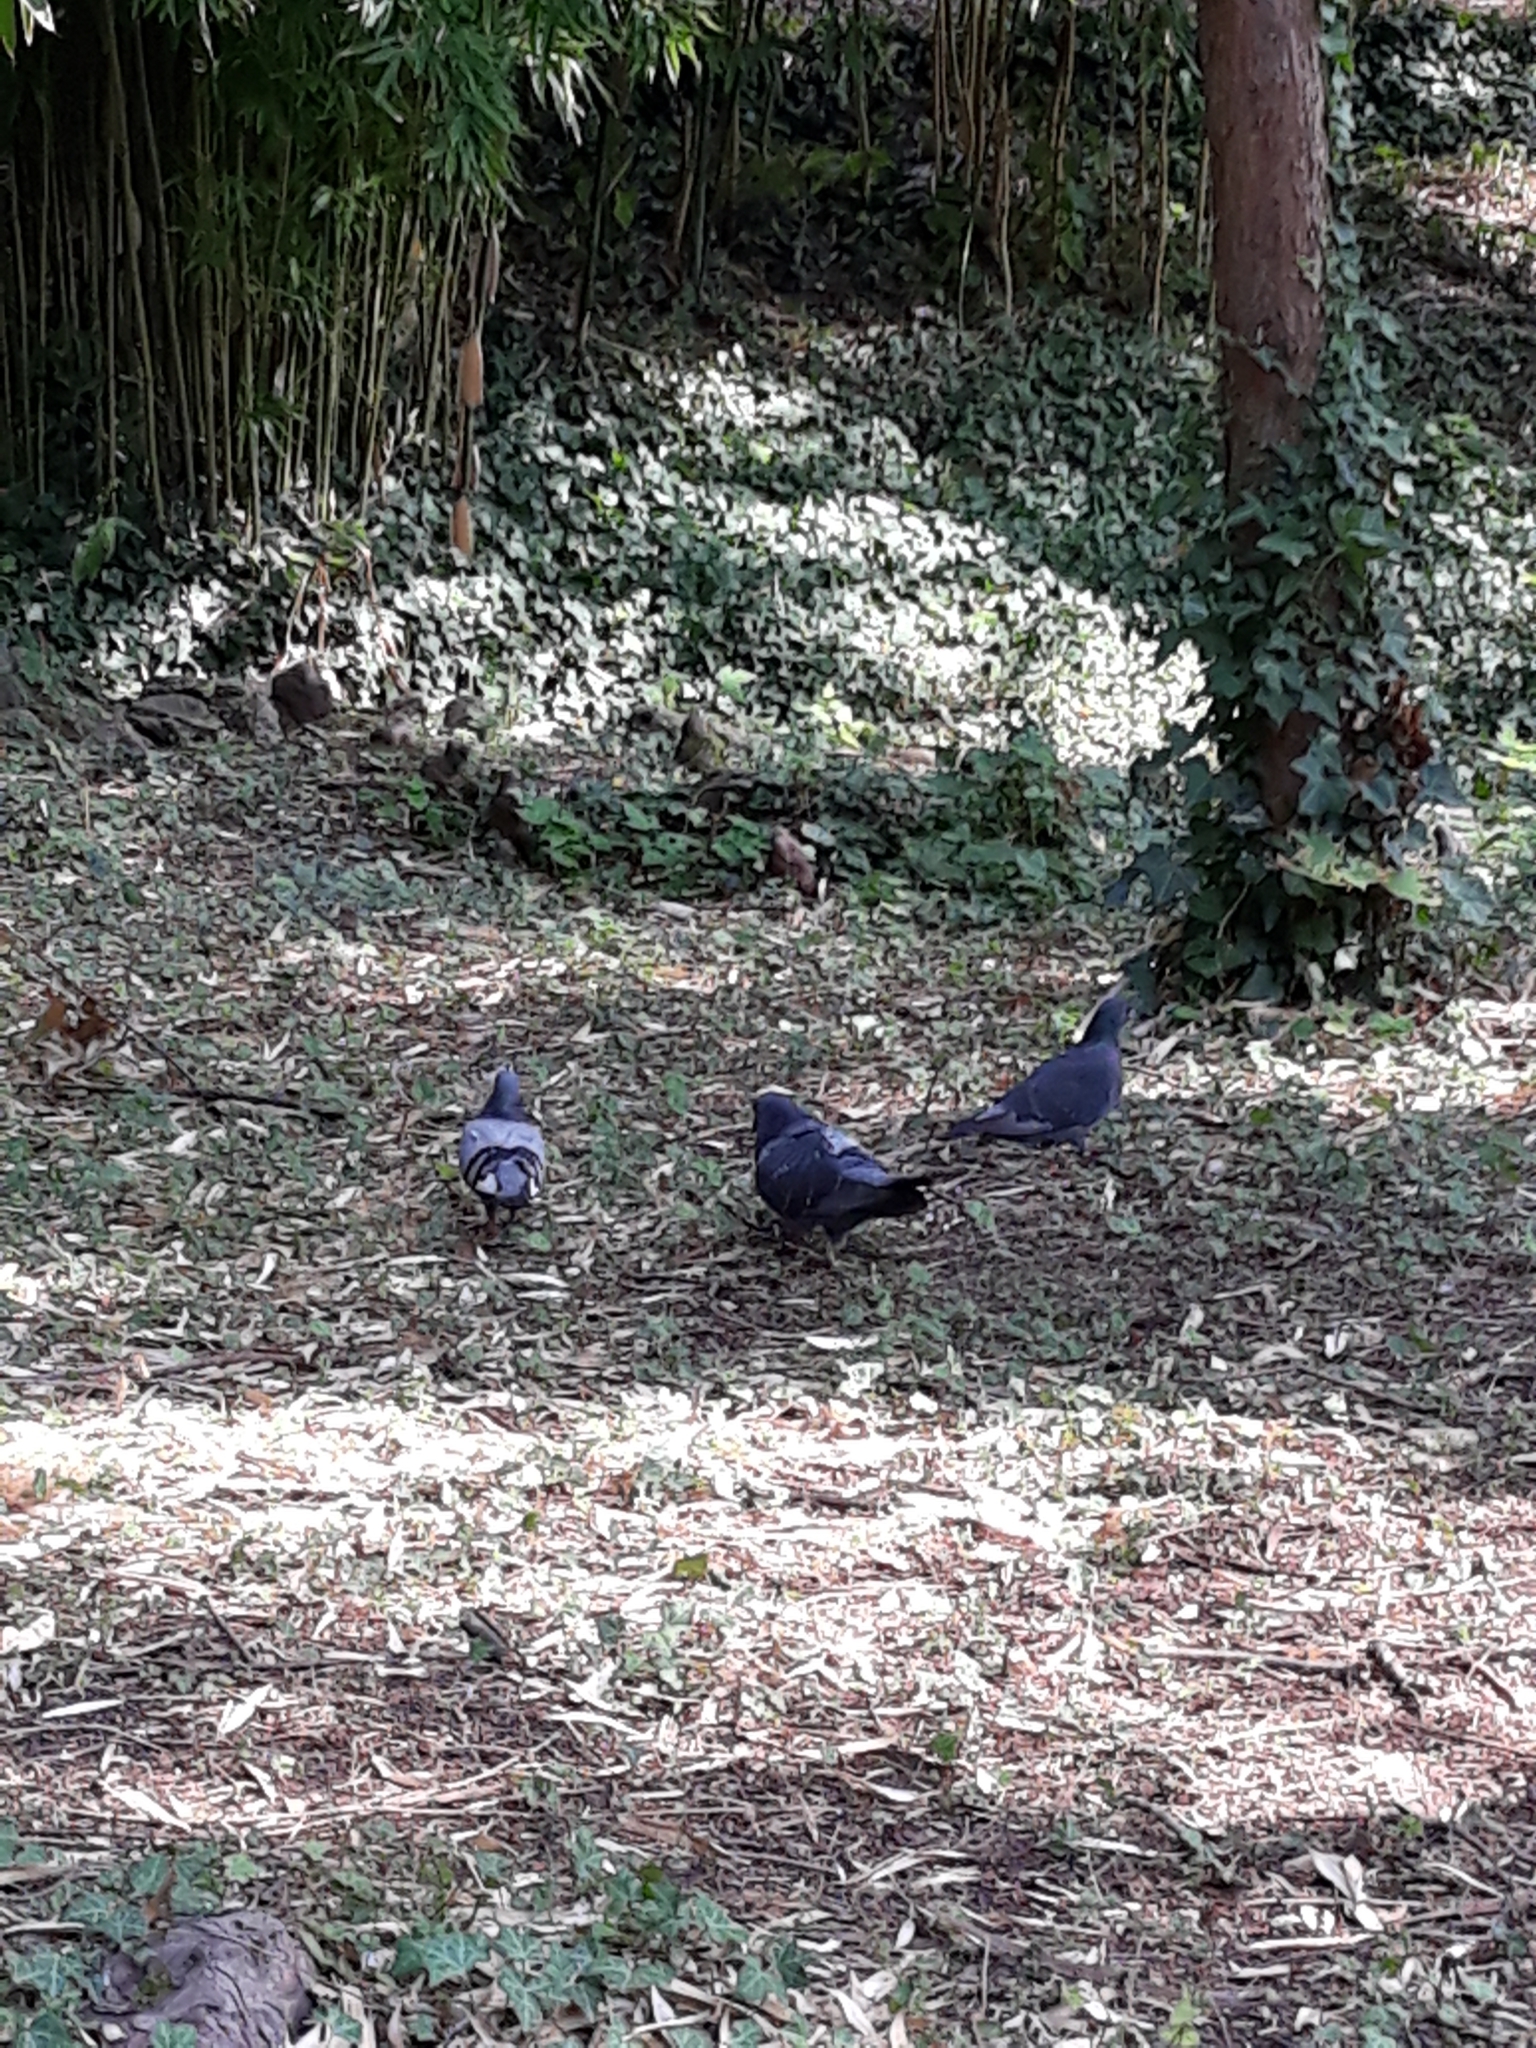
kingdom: Animalia
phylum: Chordata
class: Aves
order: Columbiformes
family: Columbidae
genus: Columba
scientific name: Columba livia
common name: Rock pigeon
